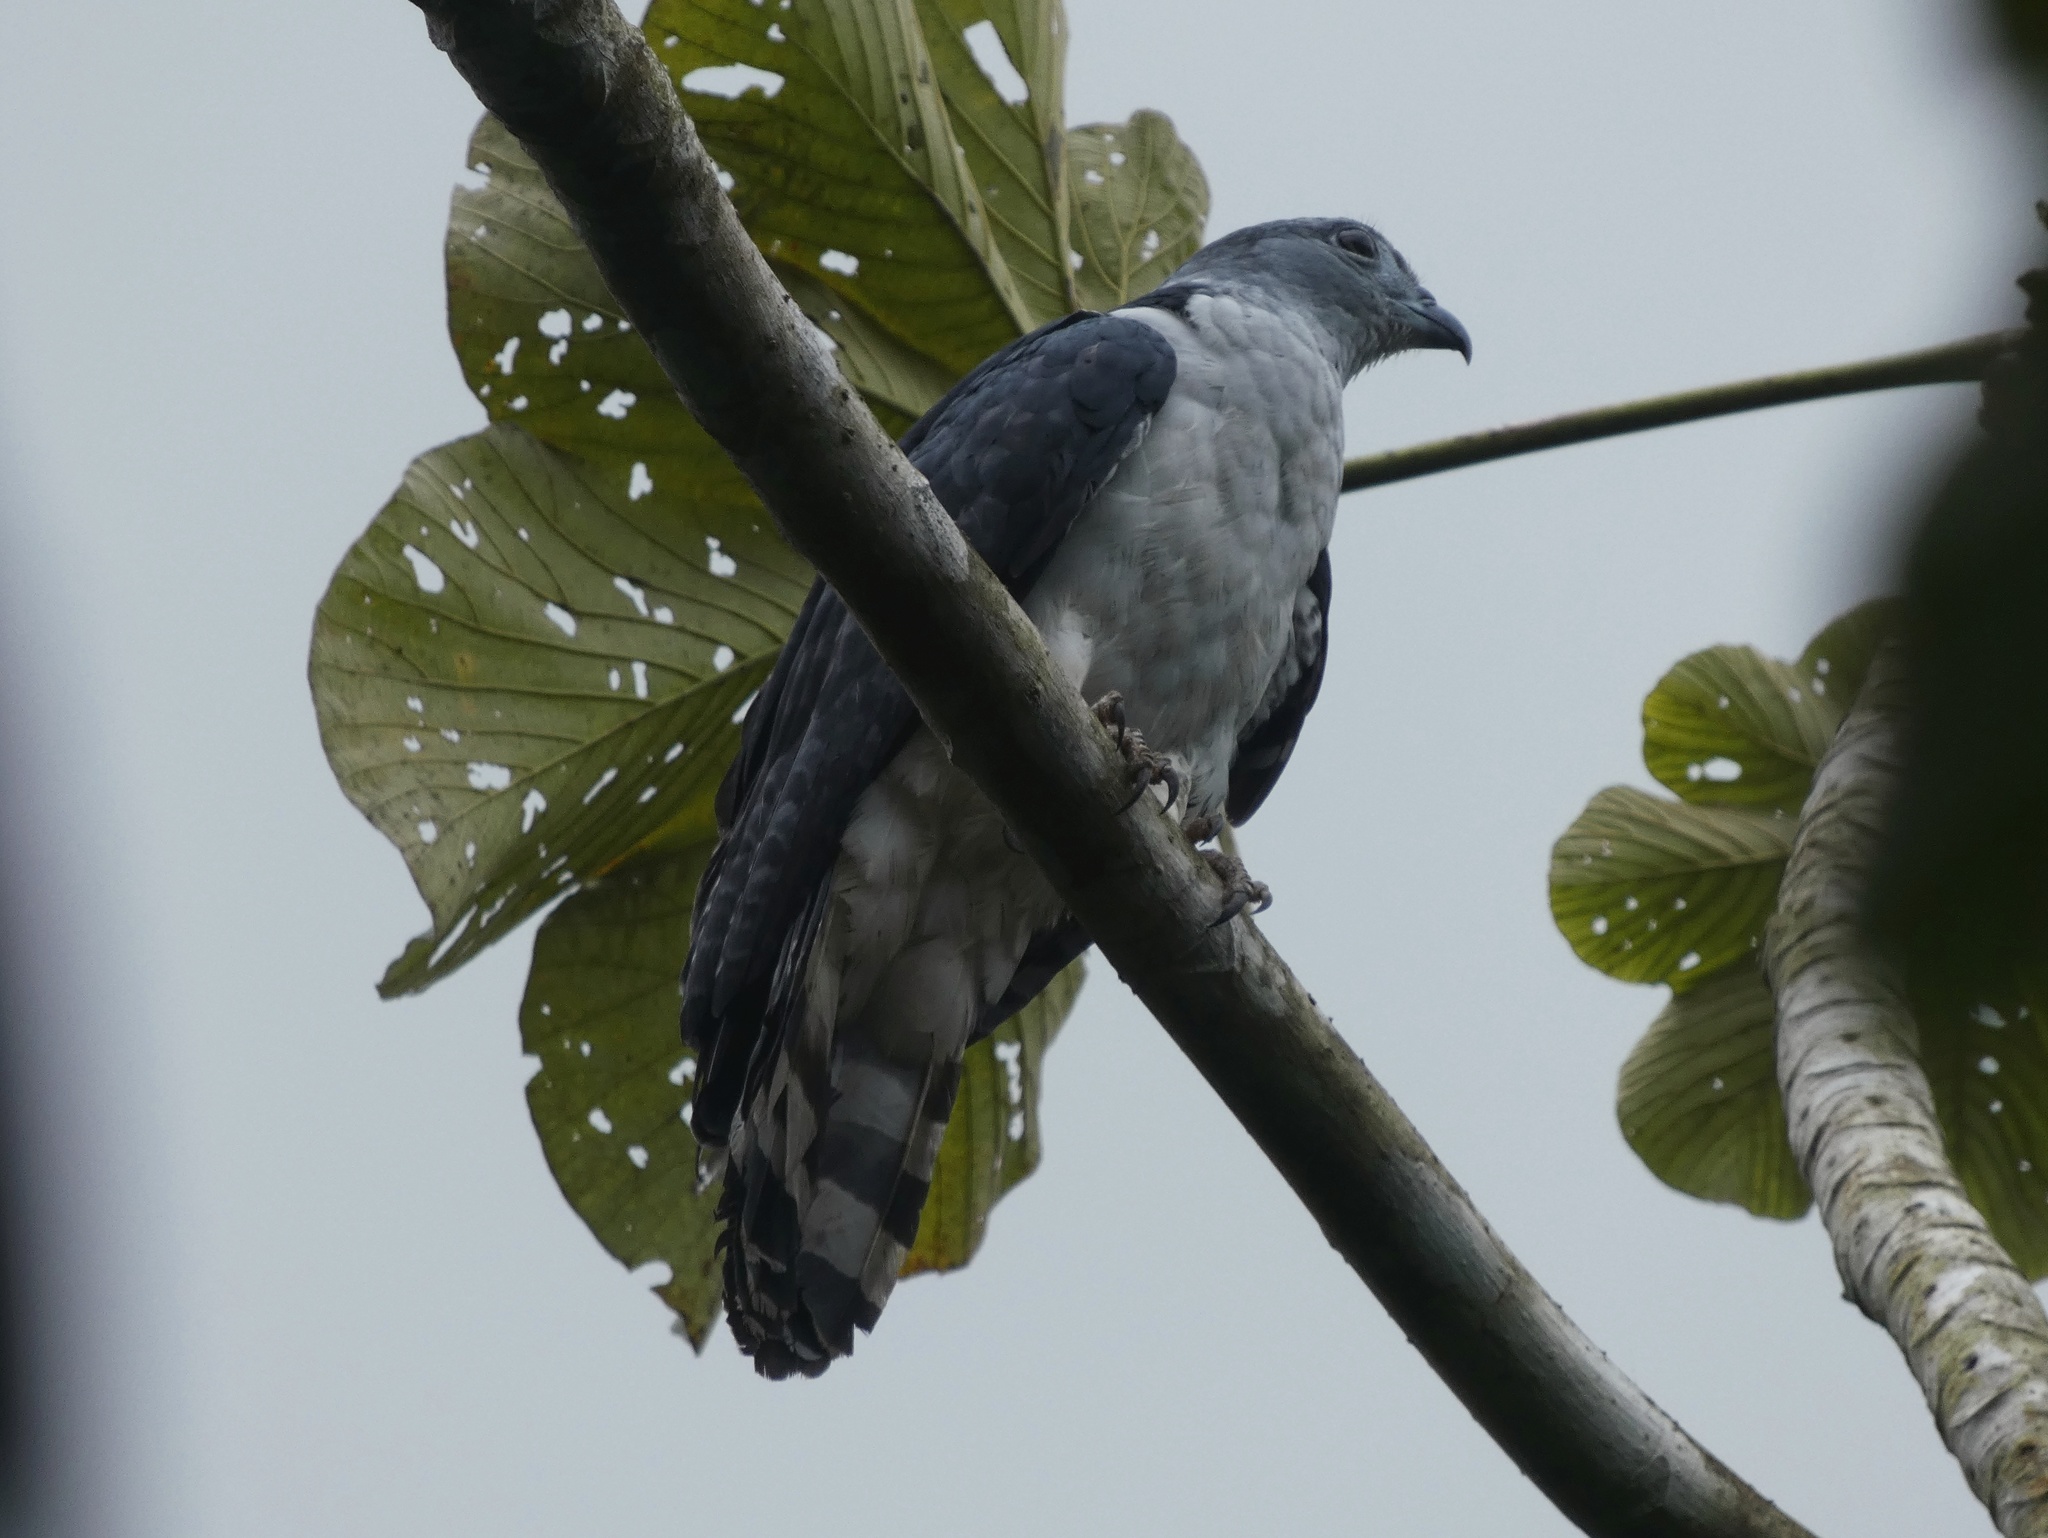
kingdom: Animalia
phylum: Chordata
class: Aves
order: Accipitriformes
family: Accipitridae
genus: Leptodon
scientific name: Leptodon cayanensis
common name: Gray-headed kite
